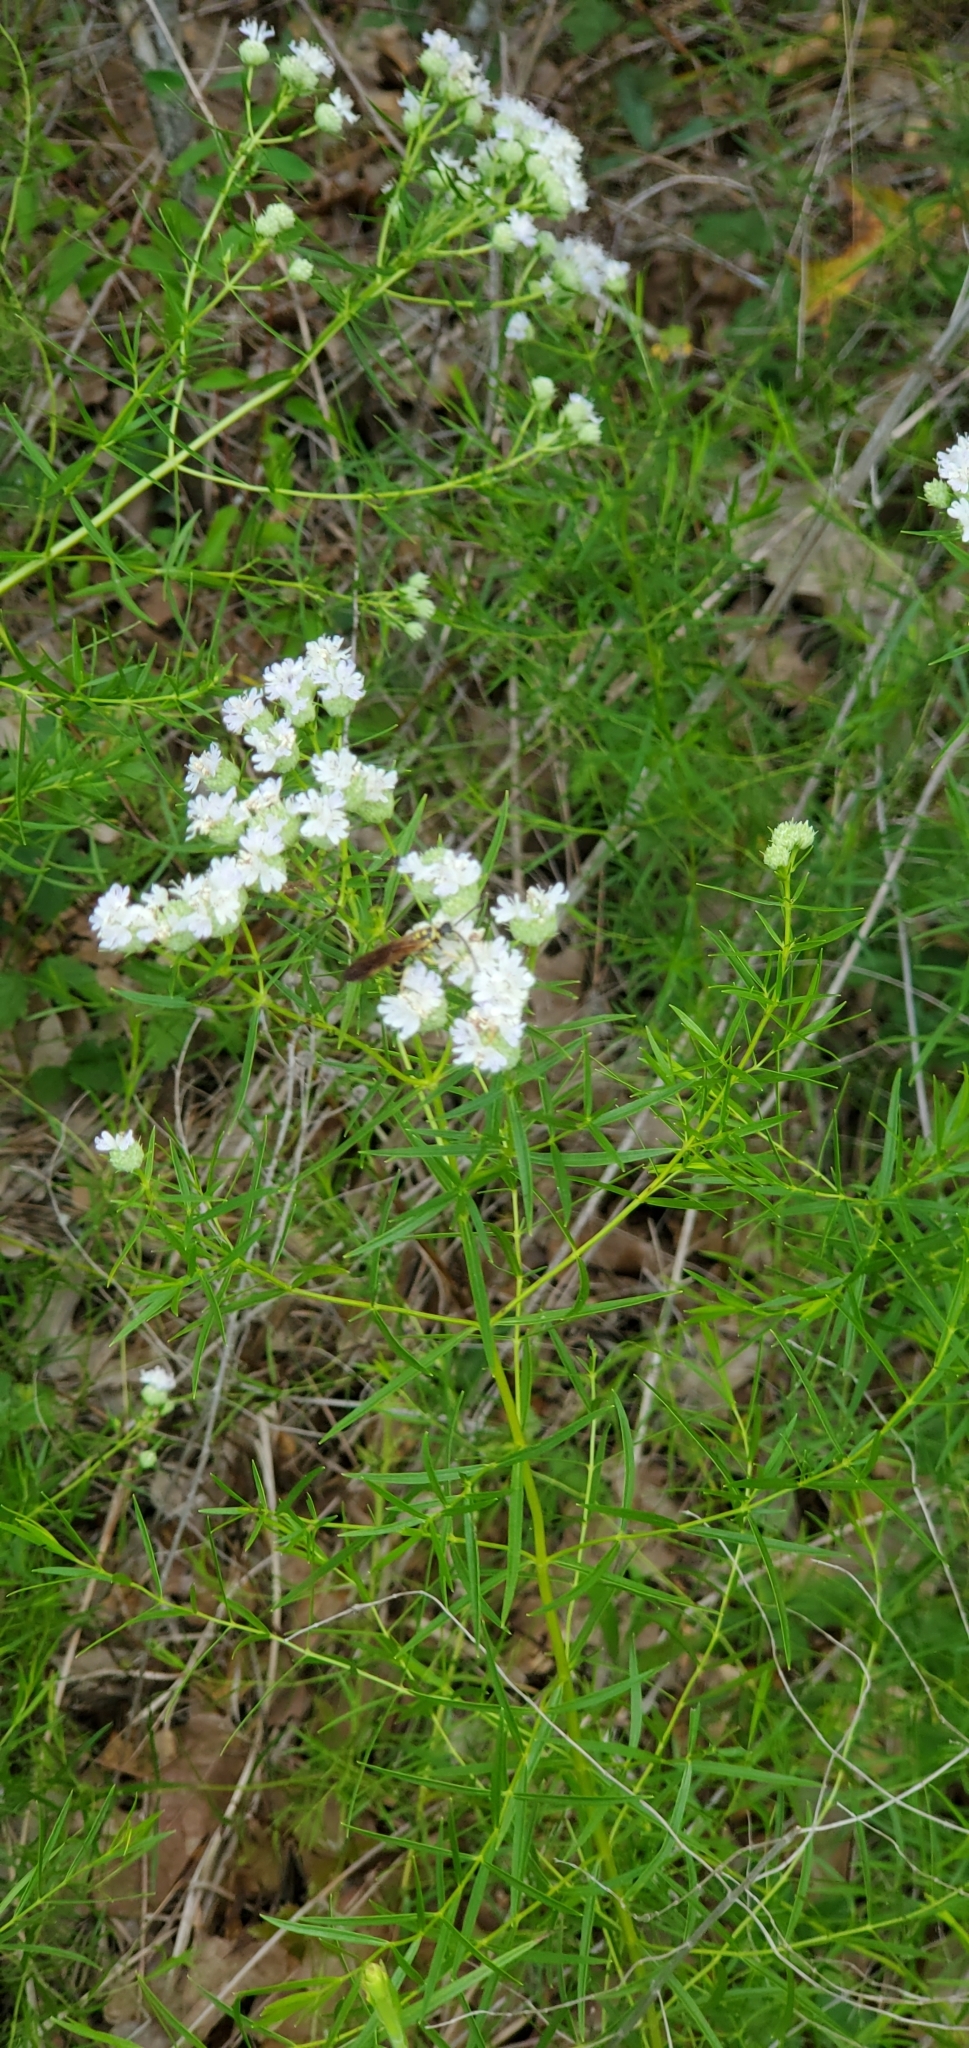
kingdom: Animalia
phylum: Arthropoda
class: Insecta
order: Hymenoptera
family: Tiphiidae
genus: Myzinum
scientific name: Myzinum quinquecinctum
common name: Five-banded thynnid wasp
